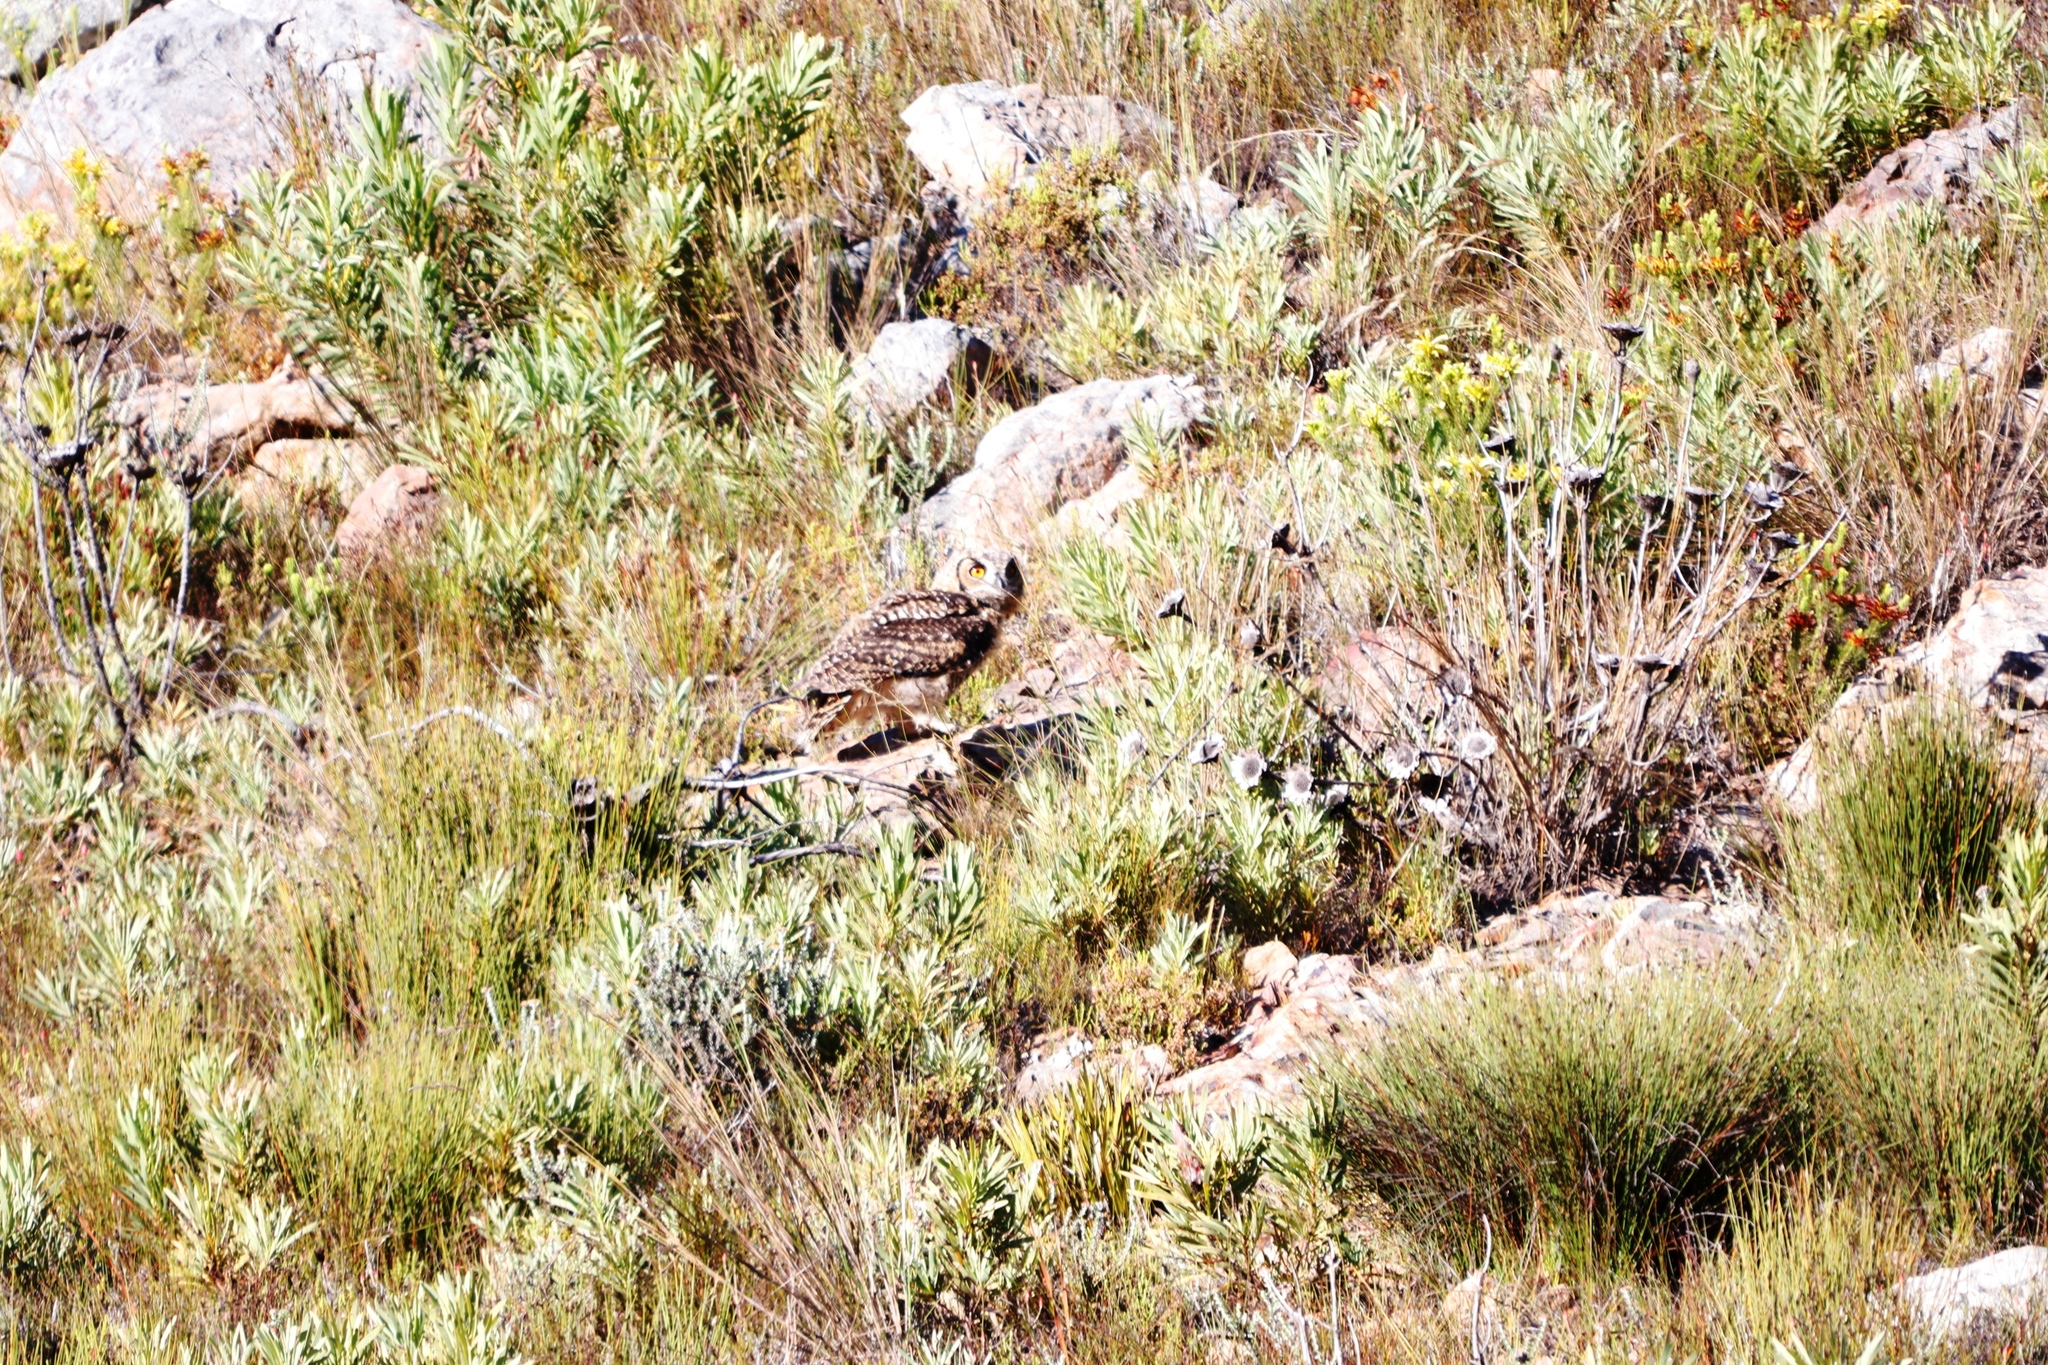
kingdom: Animalia
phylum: Chordata
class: Aves
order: Strigiformes
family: Strigidae
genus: Bubo
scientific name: Bubo capensis
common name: Cape eagle-owl
